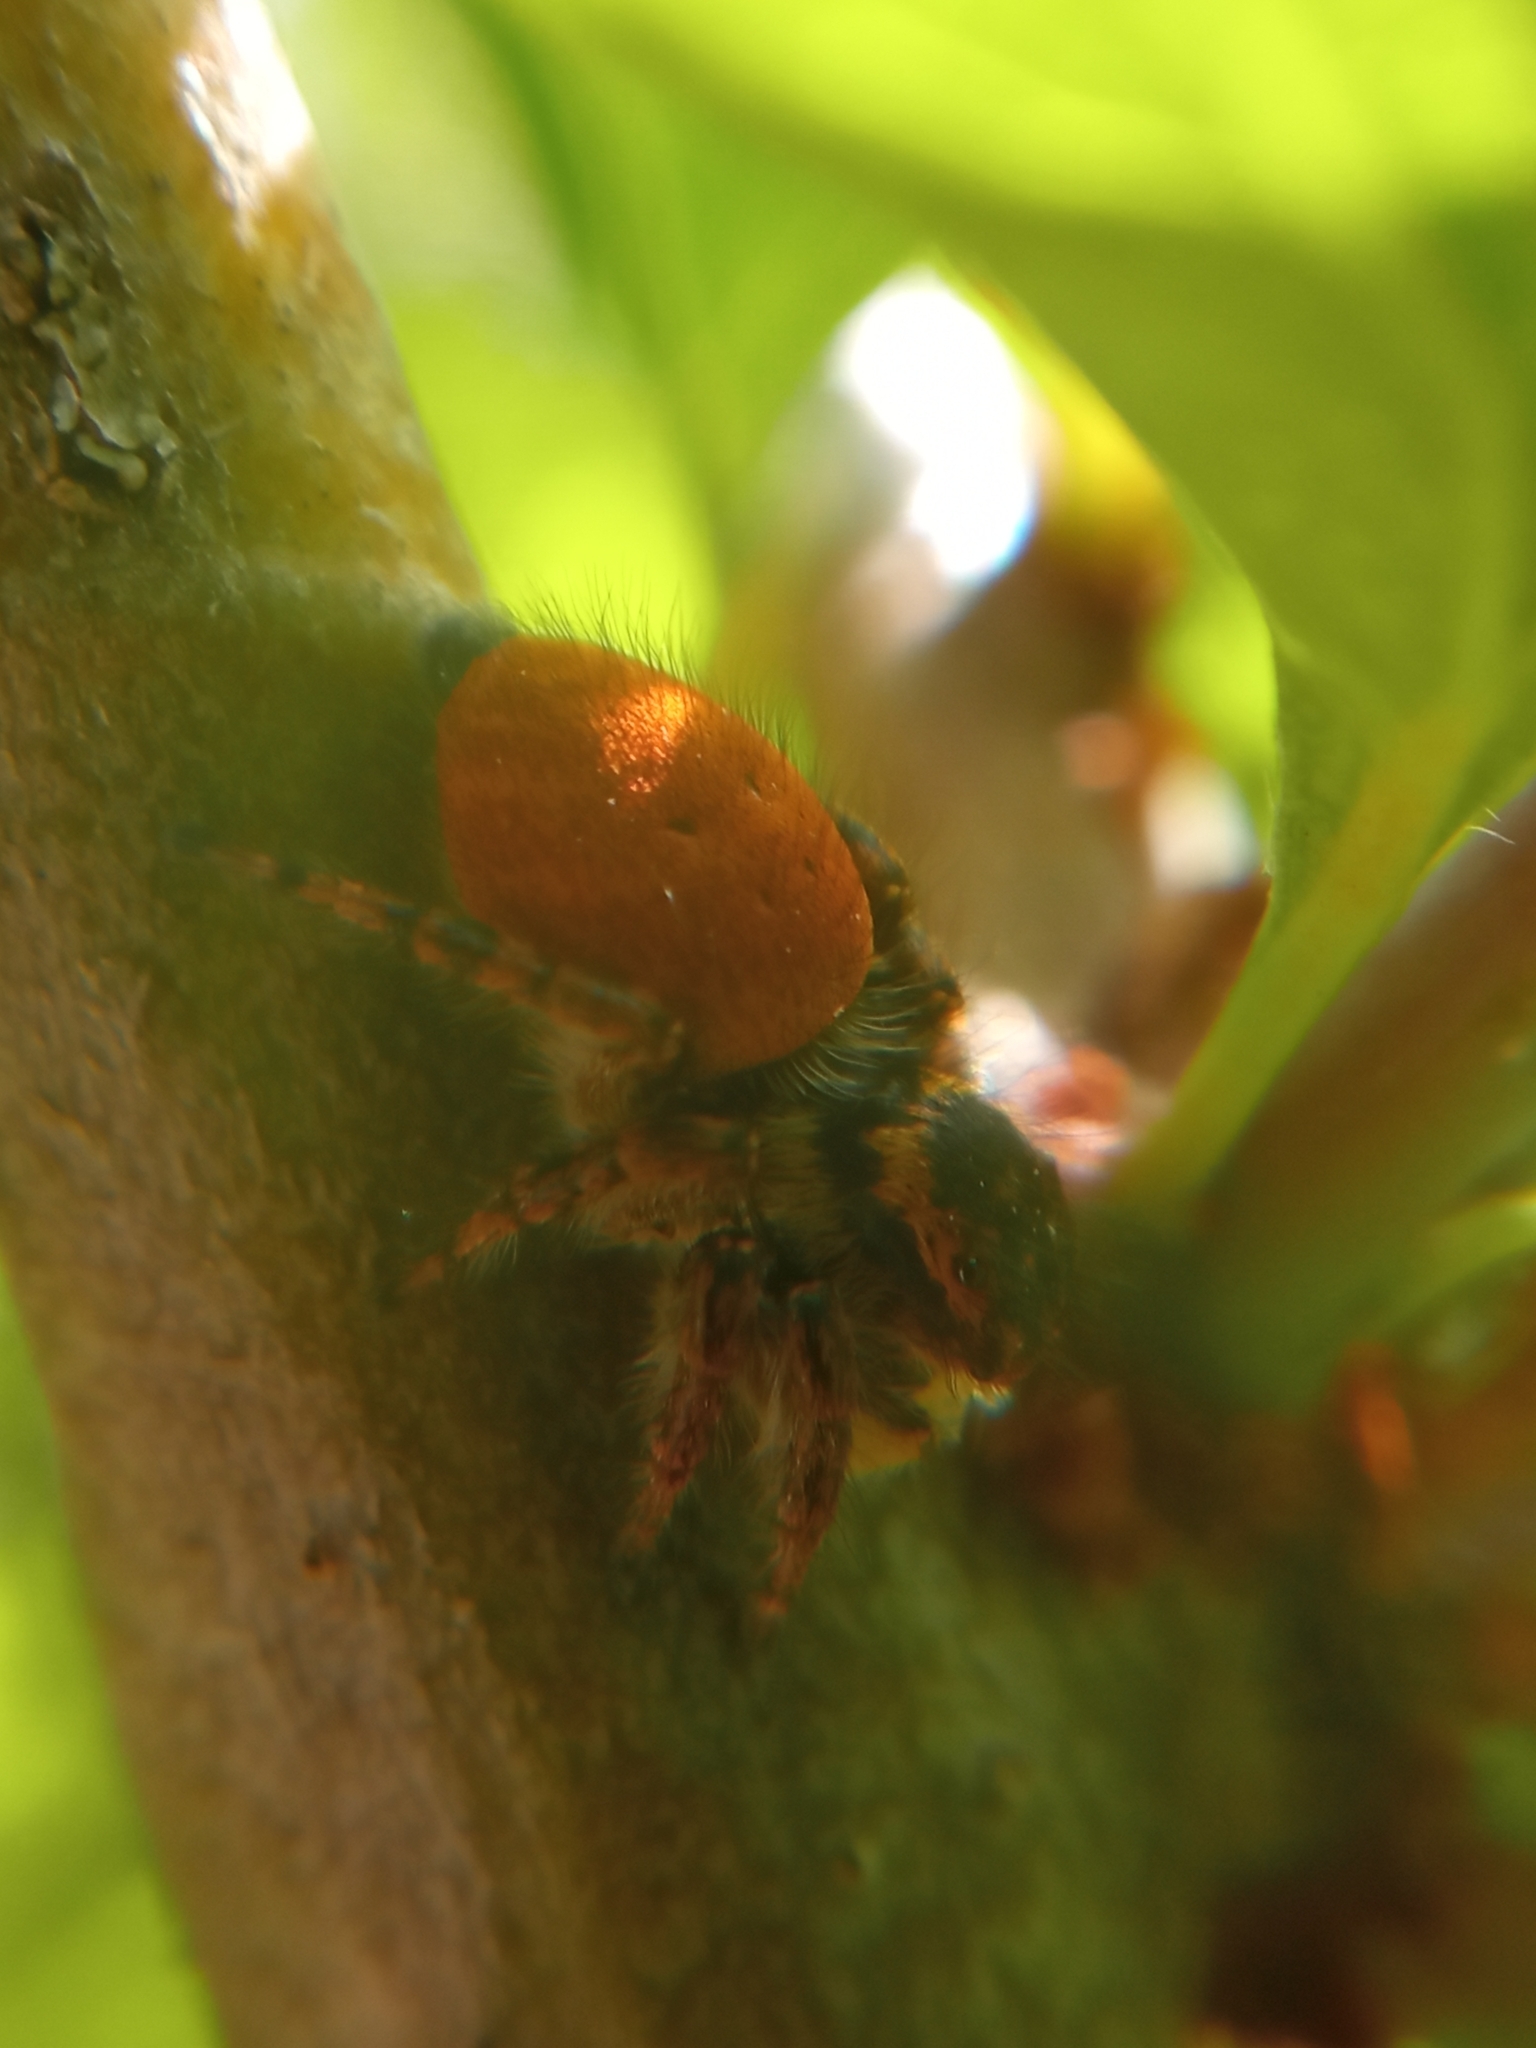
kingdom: Animalia
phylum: Arthropoda
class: Arachnida
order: Araneae
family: Salticidae
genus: Carrhotus
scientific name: Carrhotus xanthogramma
